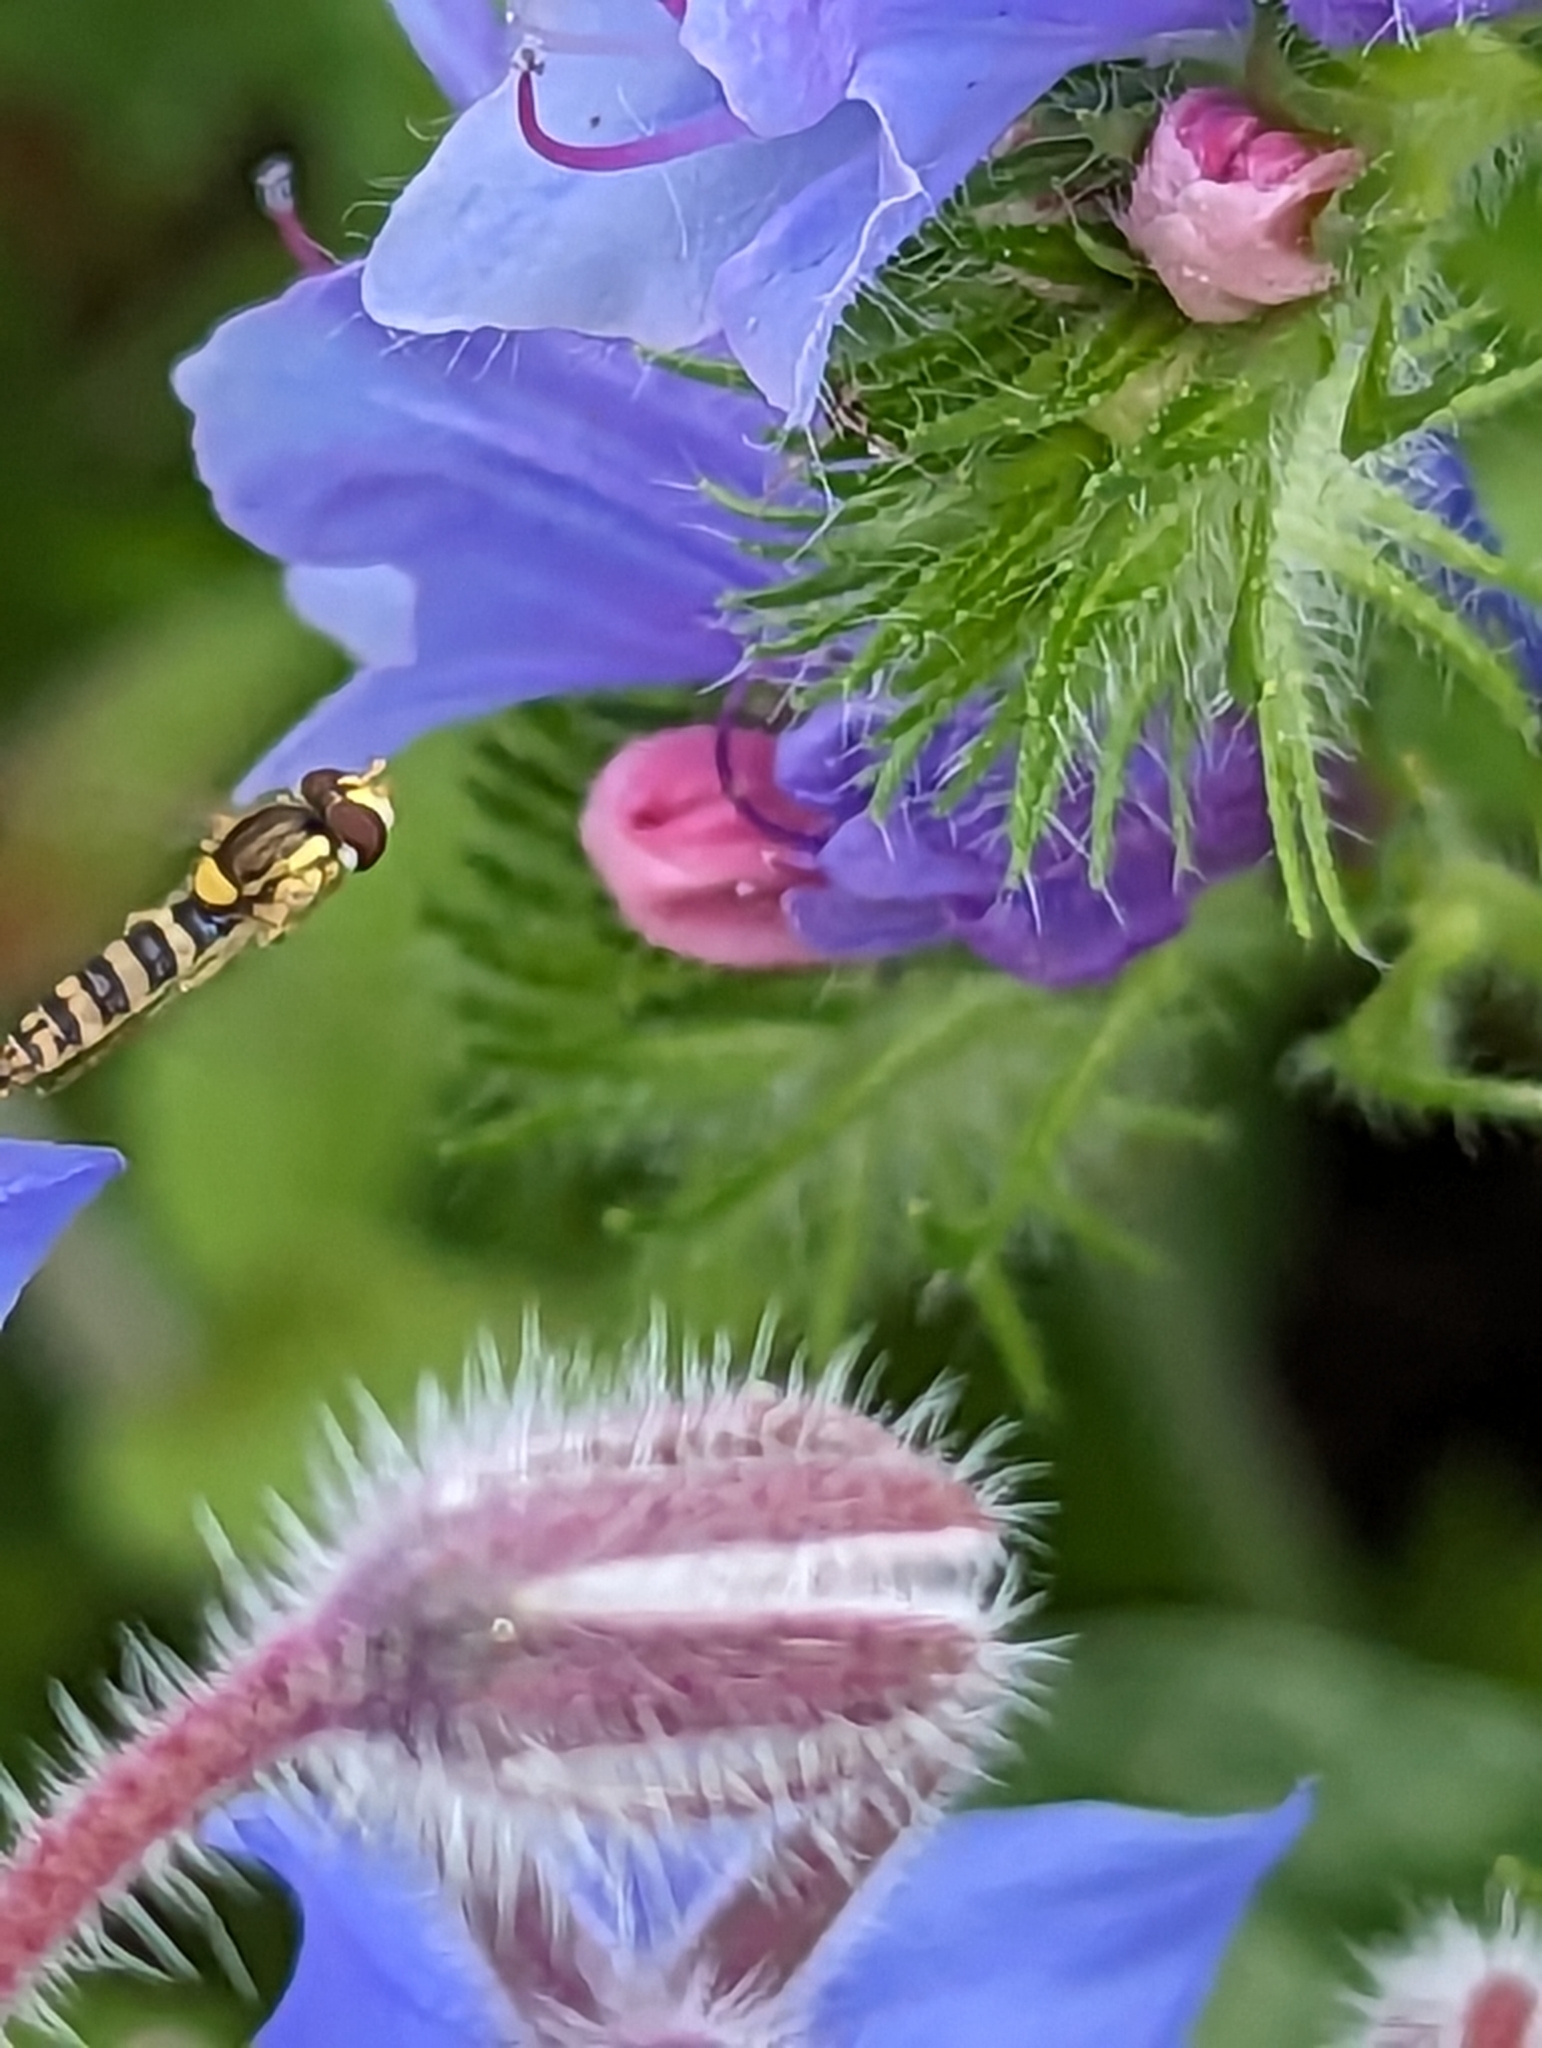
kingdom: Animalia
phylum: Arthropoda
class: Insecta
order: Diptera
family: Syrphidae
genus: Sphaerophoria
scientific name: Sphaerophoria
